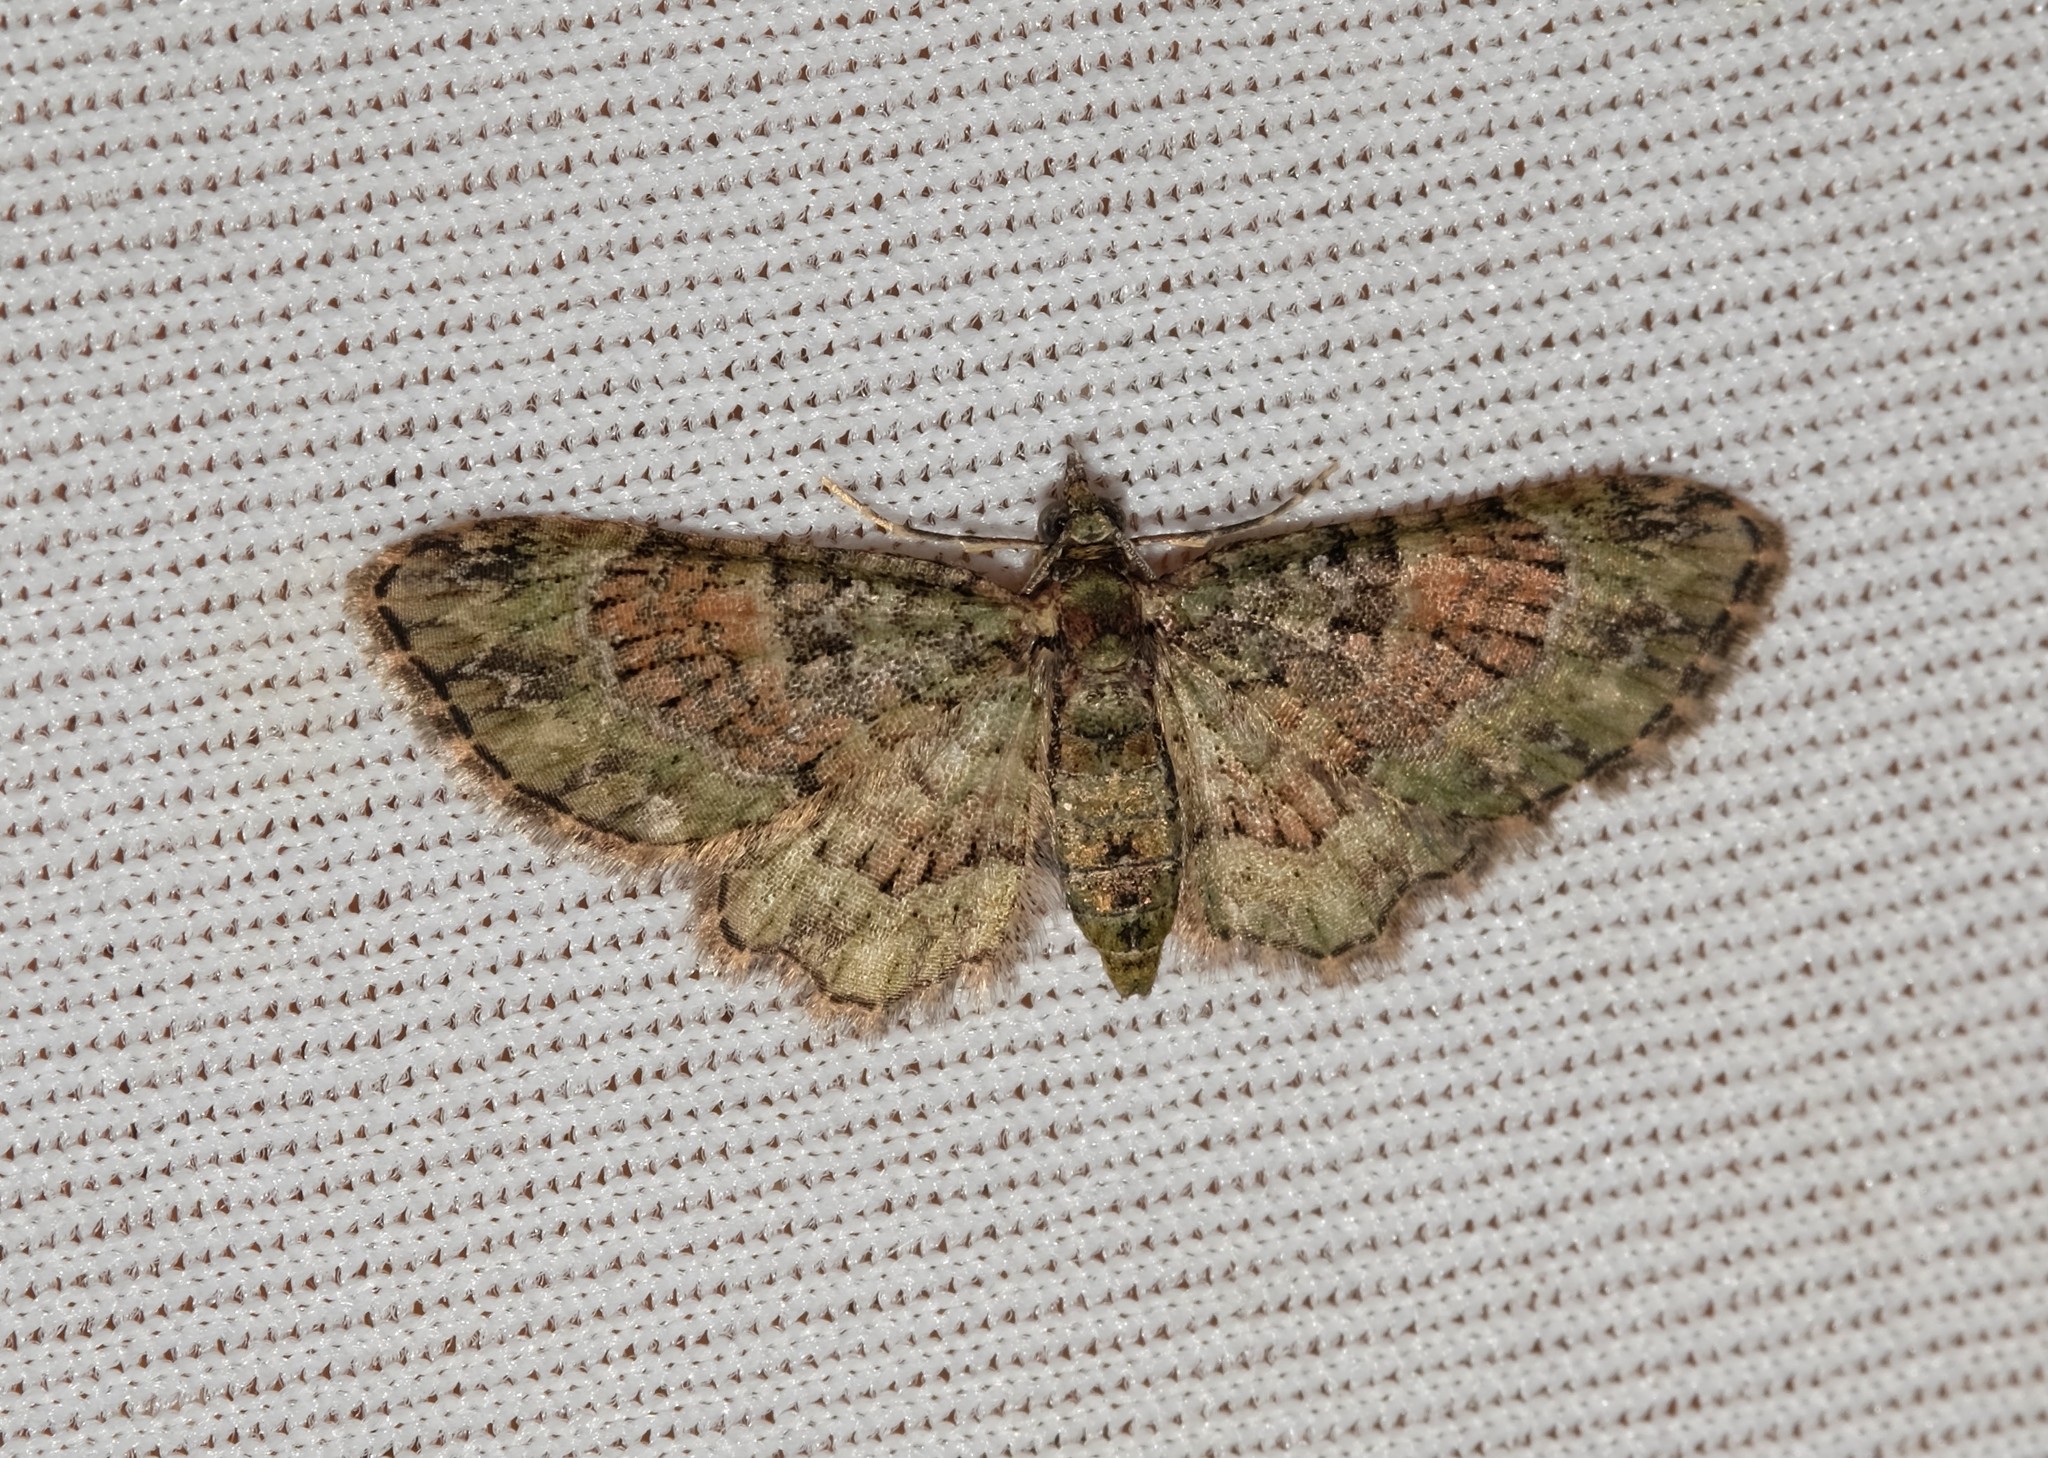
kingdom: Animalia
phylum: Arthropoda
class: Insecta
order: Lepidoptera
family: Geometridae
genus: Chloroclystis
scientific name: Chloroclystis catastreptes
